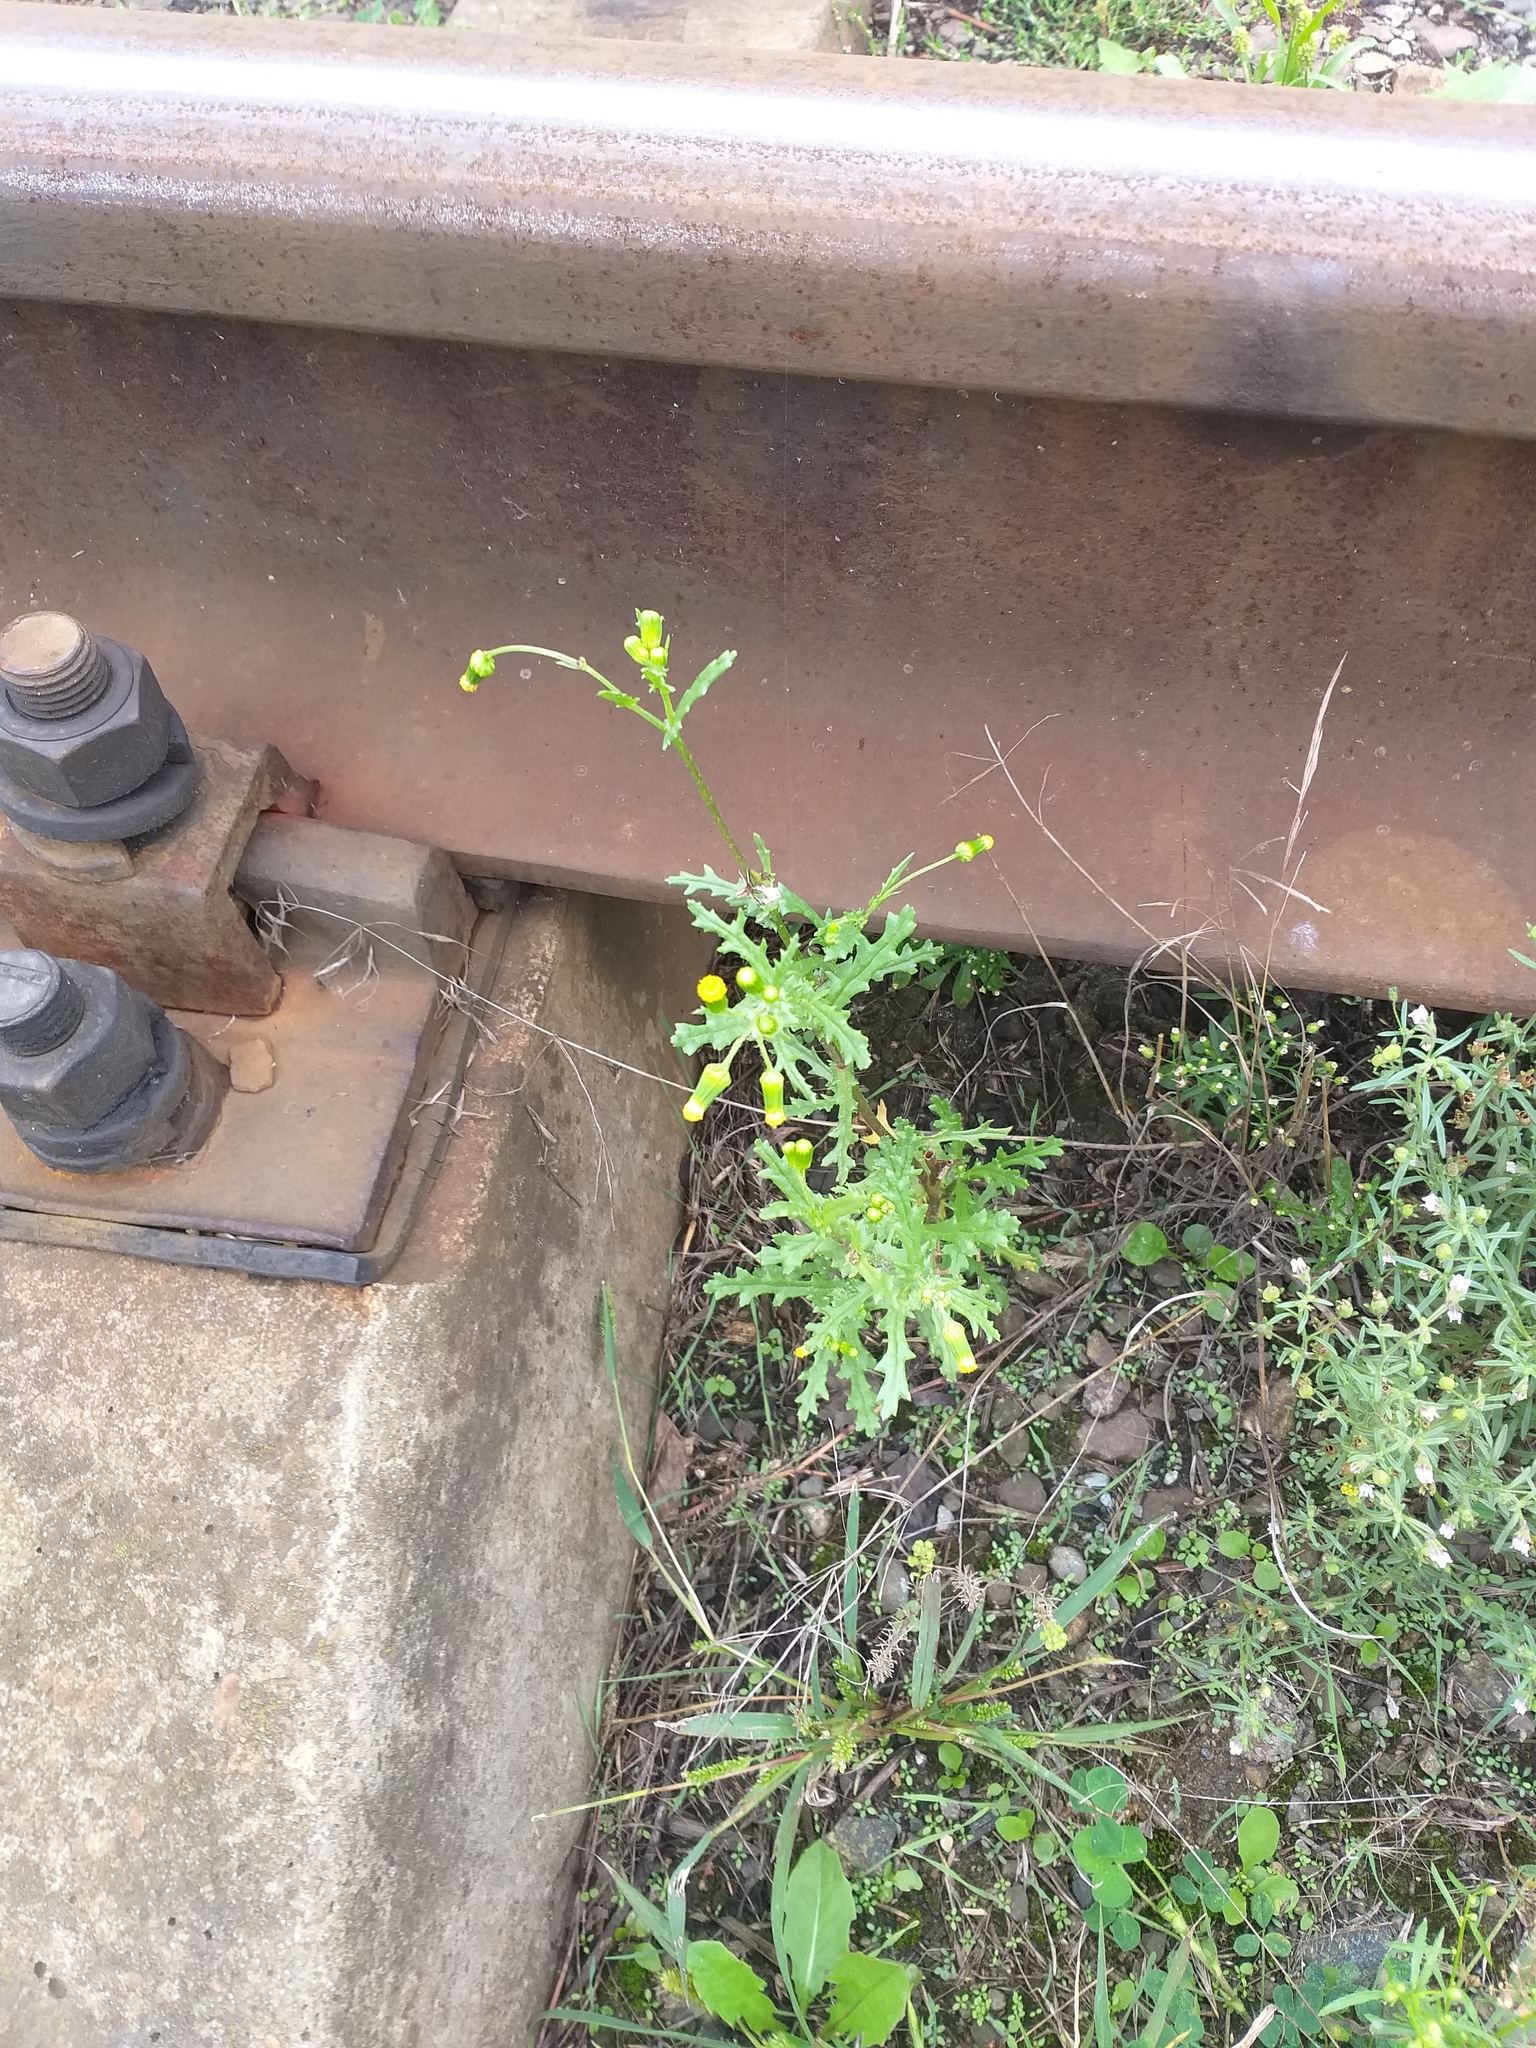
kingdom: Plantae
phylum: Tracheophyta
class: Magnoliopsida
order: Asterales
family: Asteraceae
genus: Senecio
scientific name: Senecio vulgaris
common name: Old-man-in-the-spring
